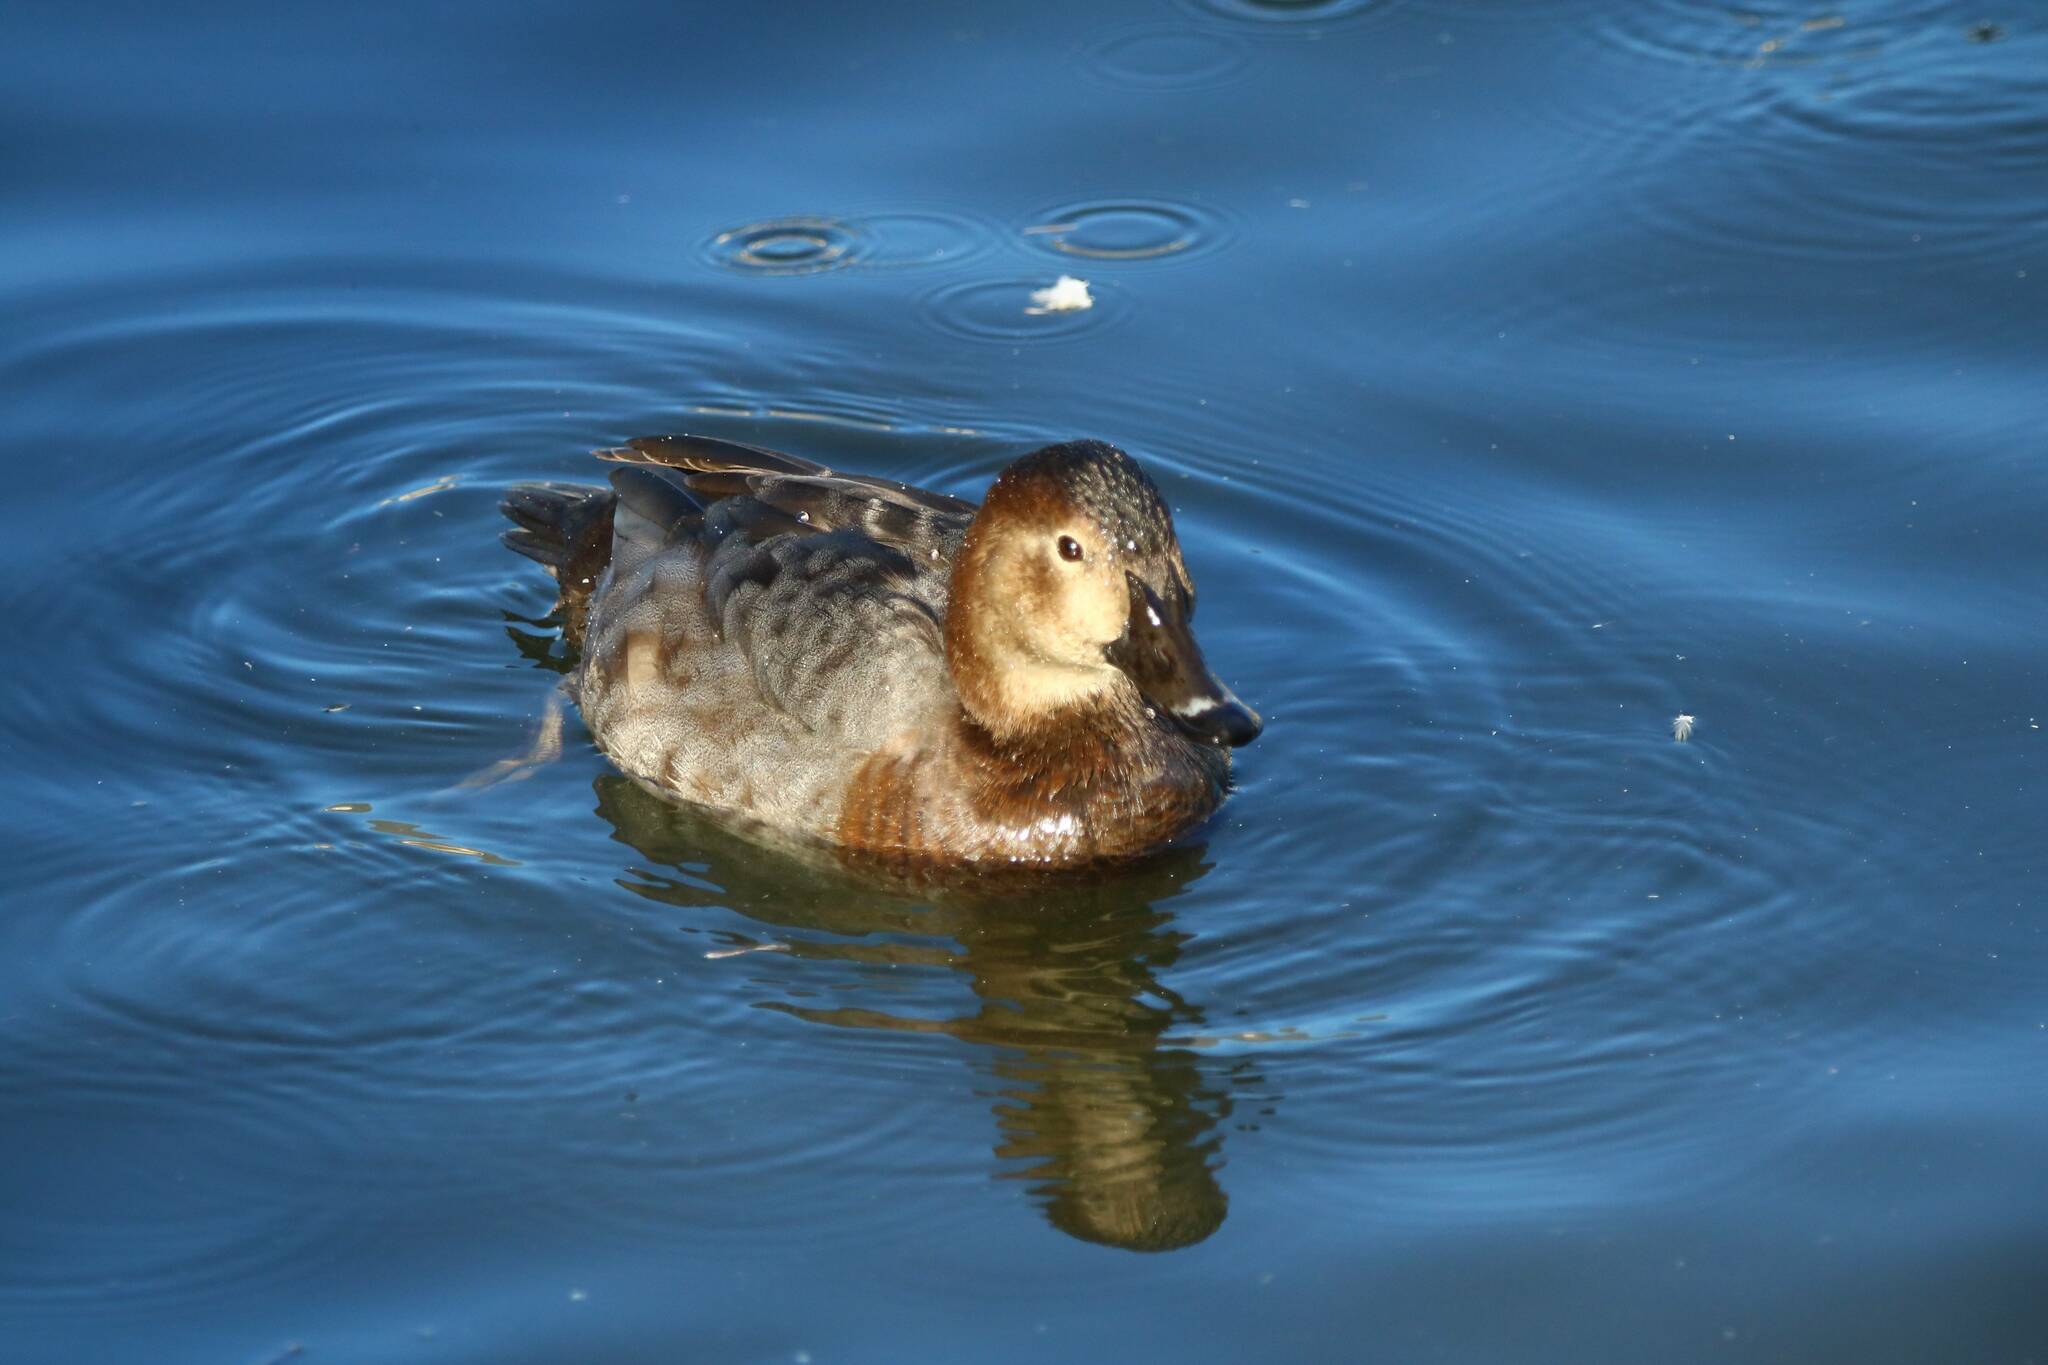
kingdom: Animalia
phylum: Chordata
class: Aves
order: Anseriformes
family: Anatidae
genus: Aythya
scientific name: Aythya ferina
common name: Common pochard
